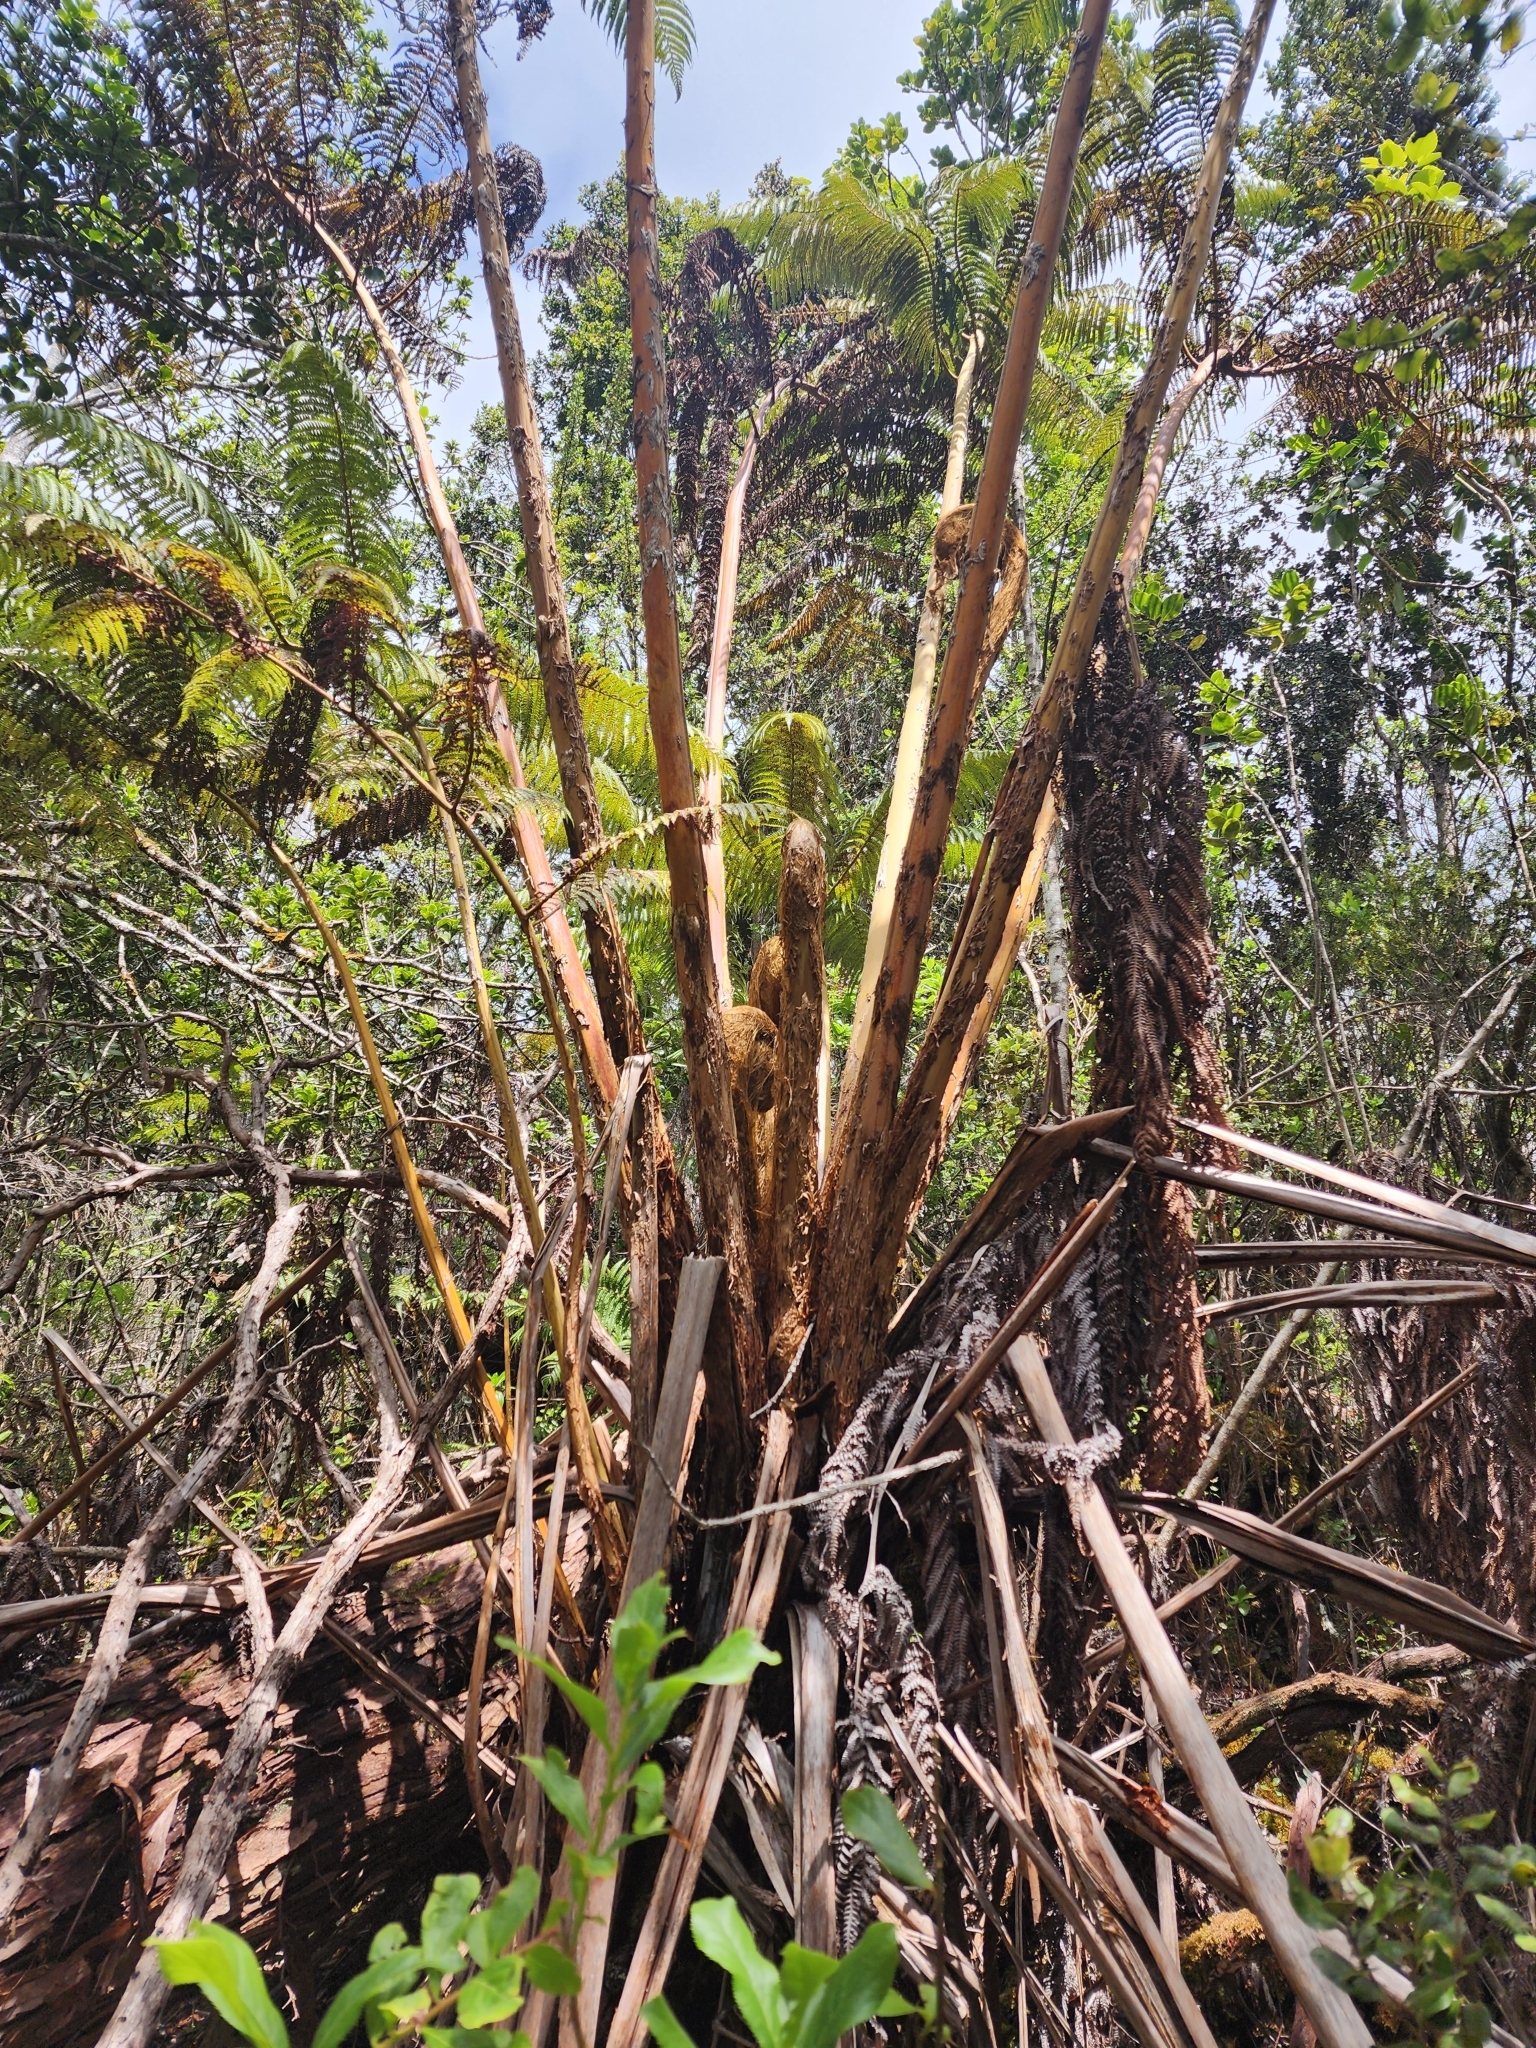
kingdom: Plantae
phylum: Tracheophyta
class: Polypodiopsida
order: Cyatheales
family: Cibotiaceae
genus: Cibotium
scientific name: Cibotium glaucum
